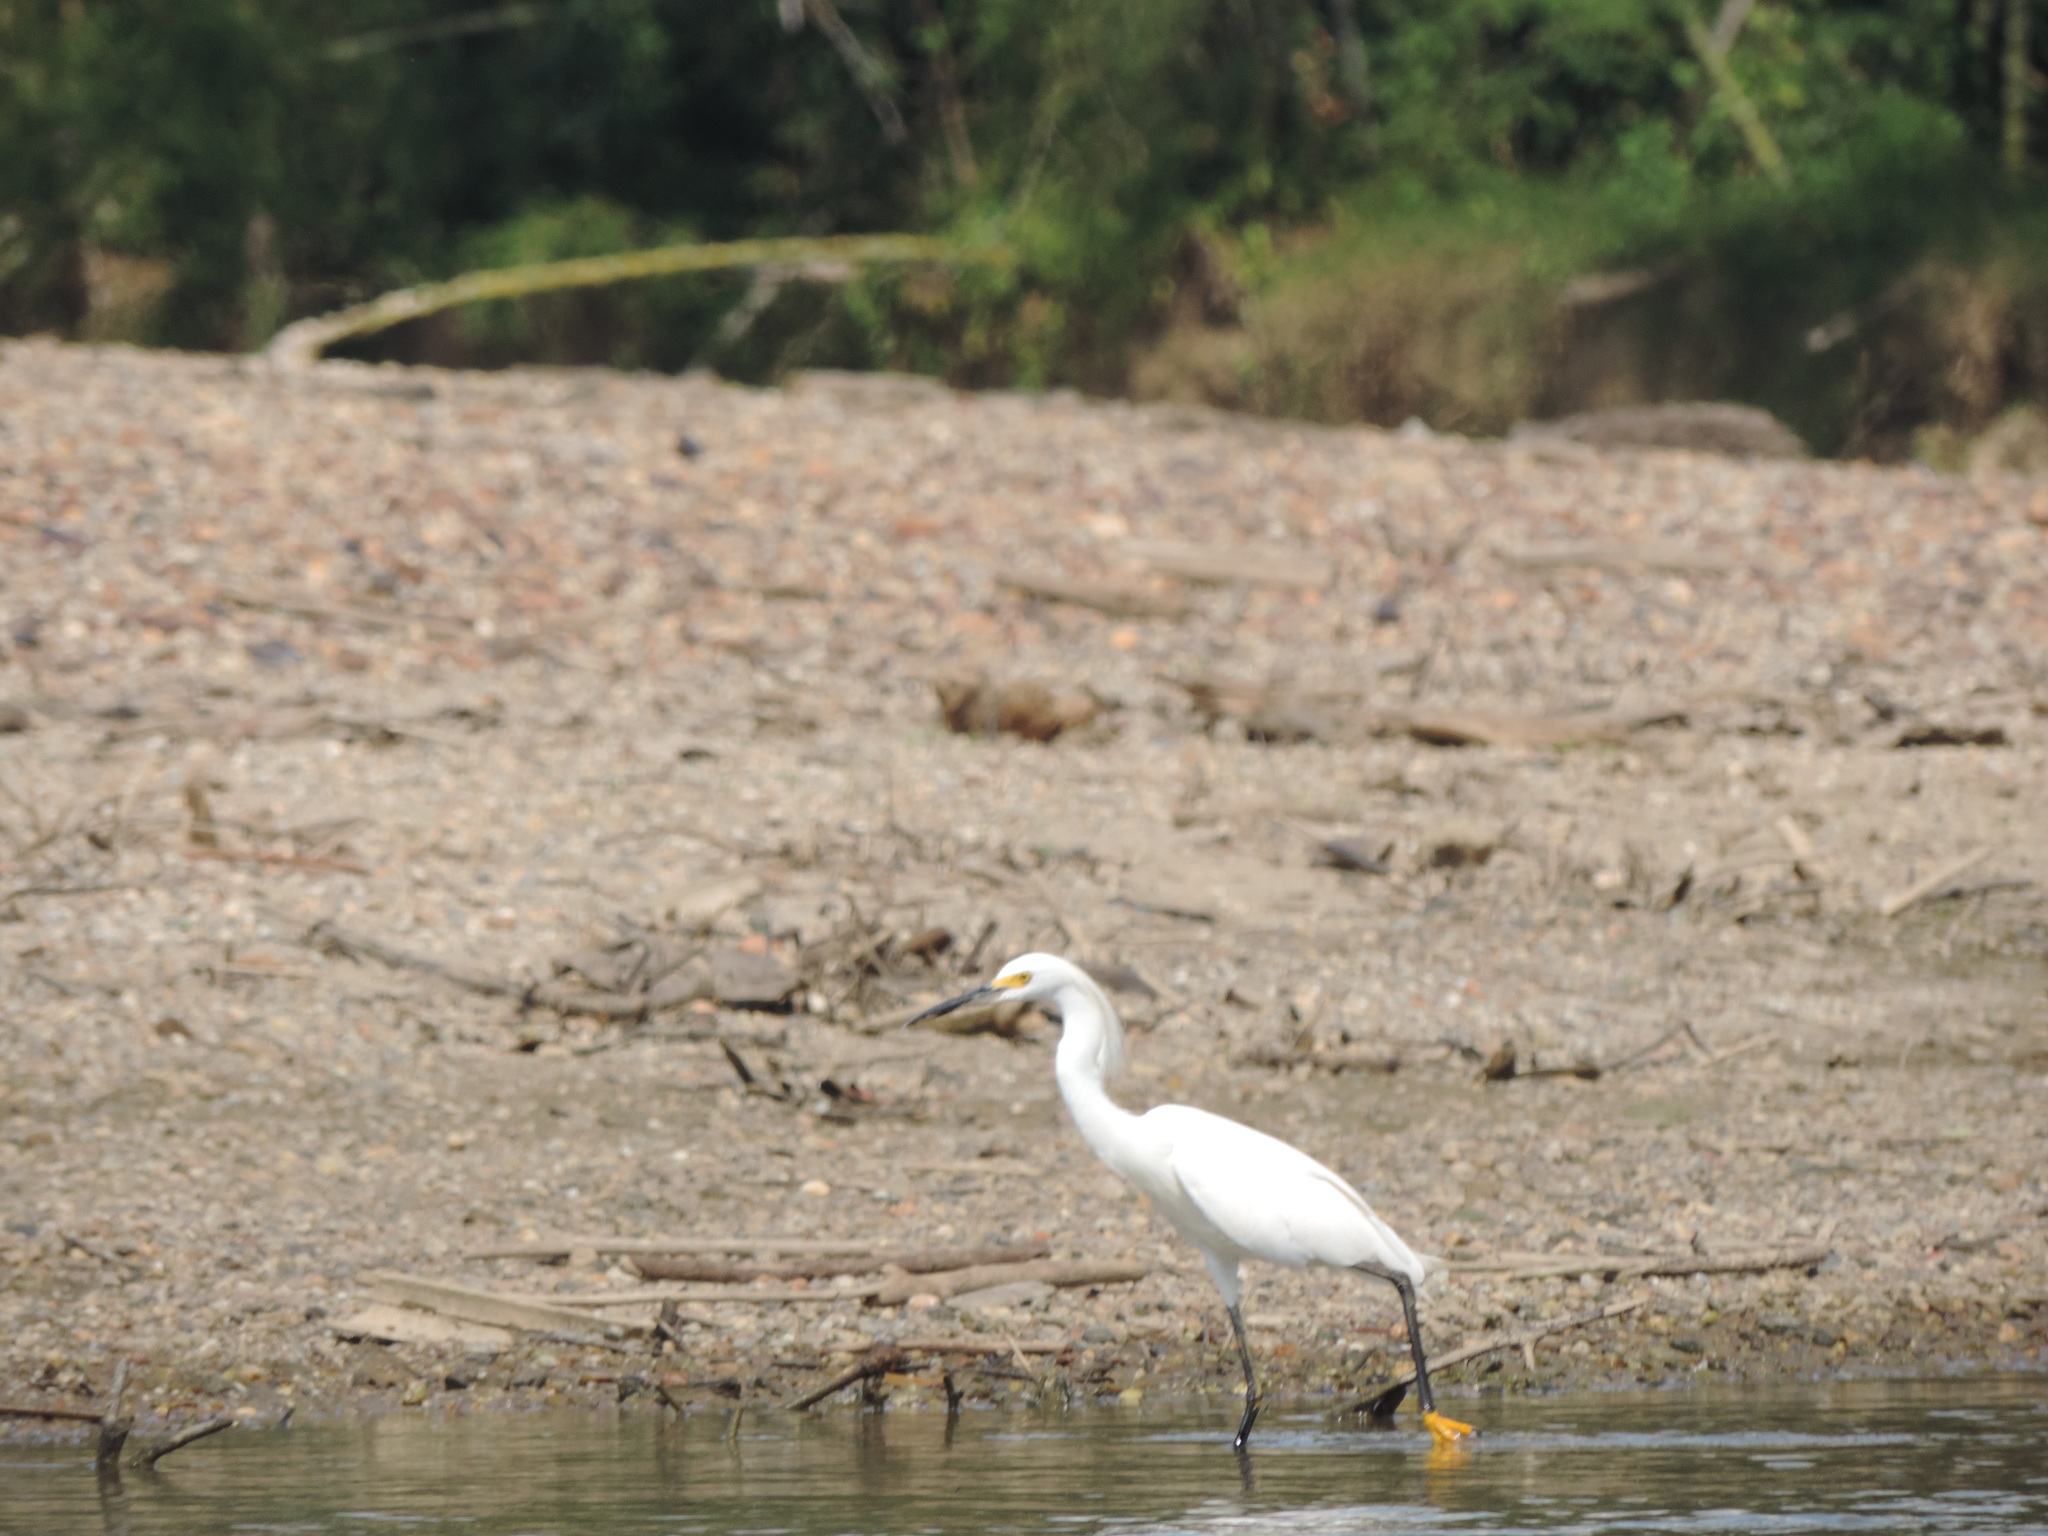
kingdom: Animalia
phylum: Chordata
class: Aves
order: Pelecaniformes
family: Ardeidae
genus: Egretta
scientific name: Egretta thula
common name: Snowy egret
